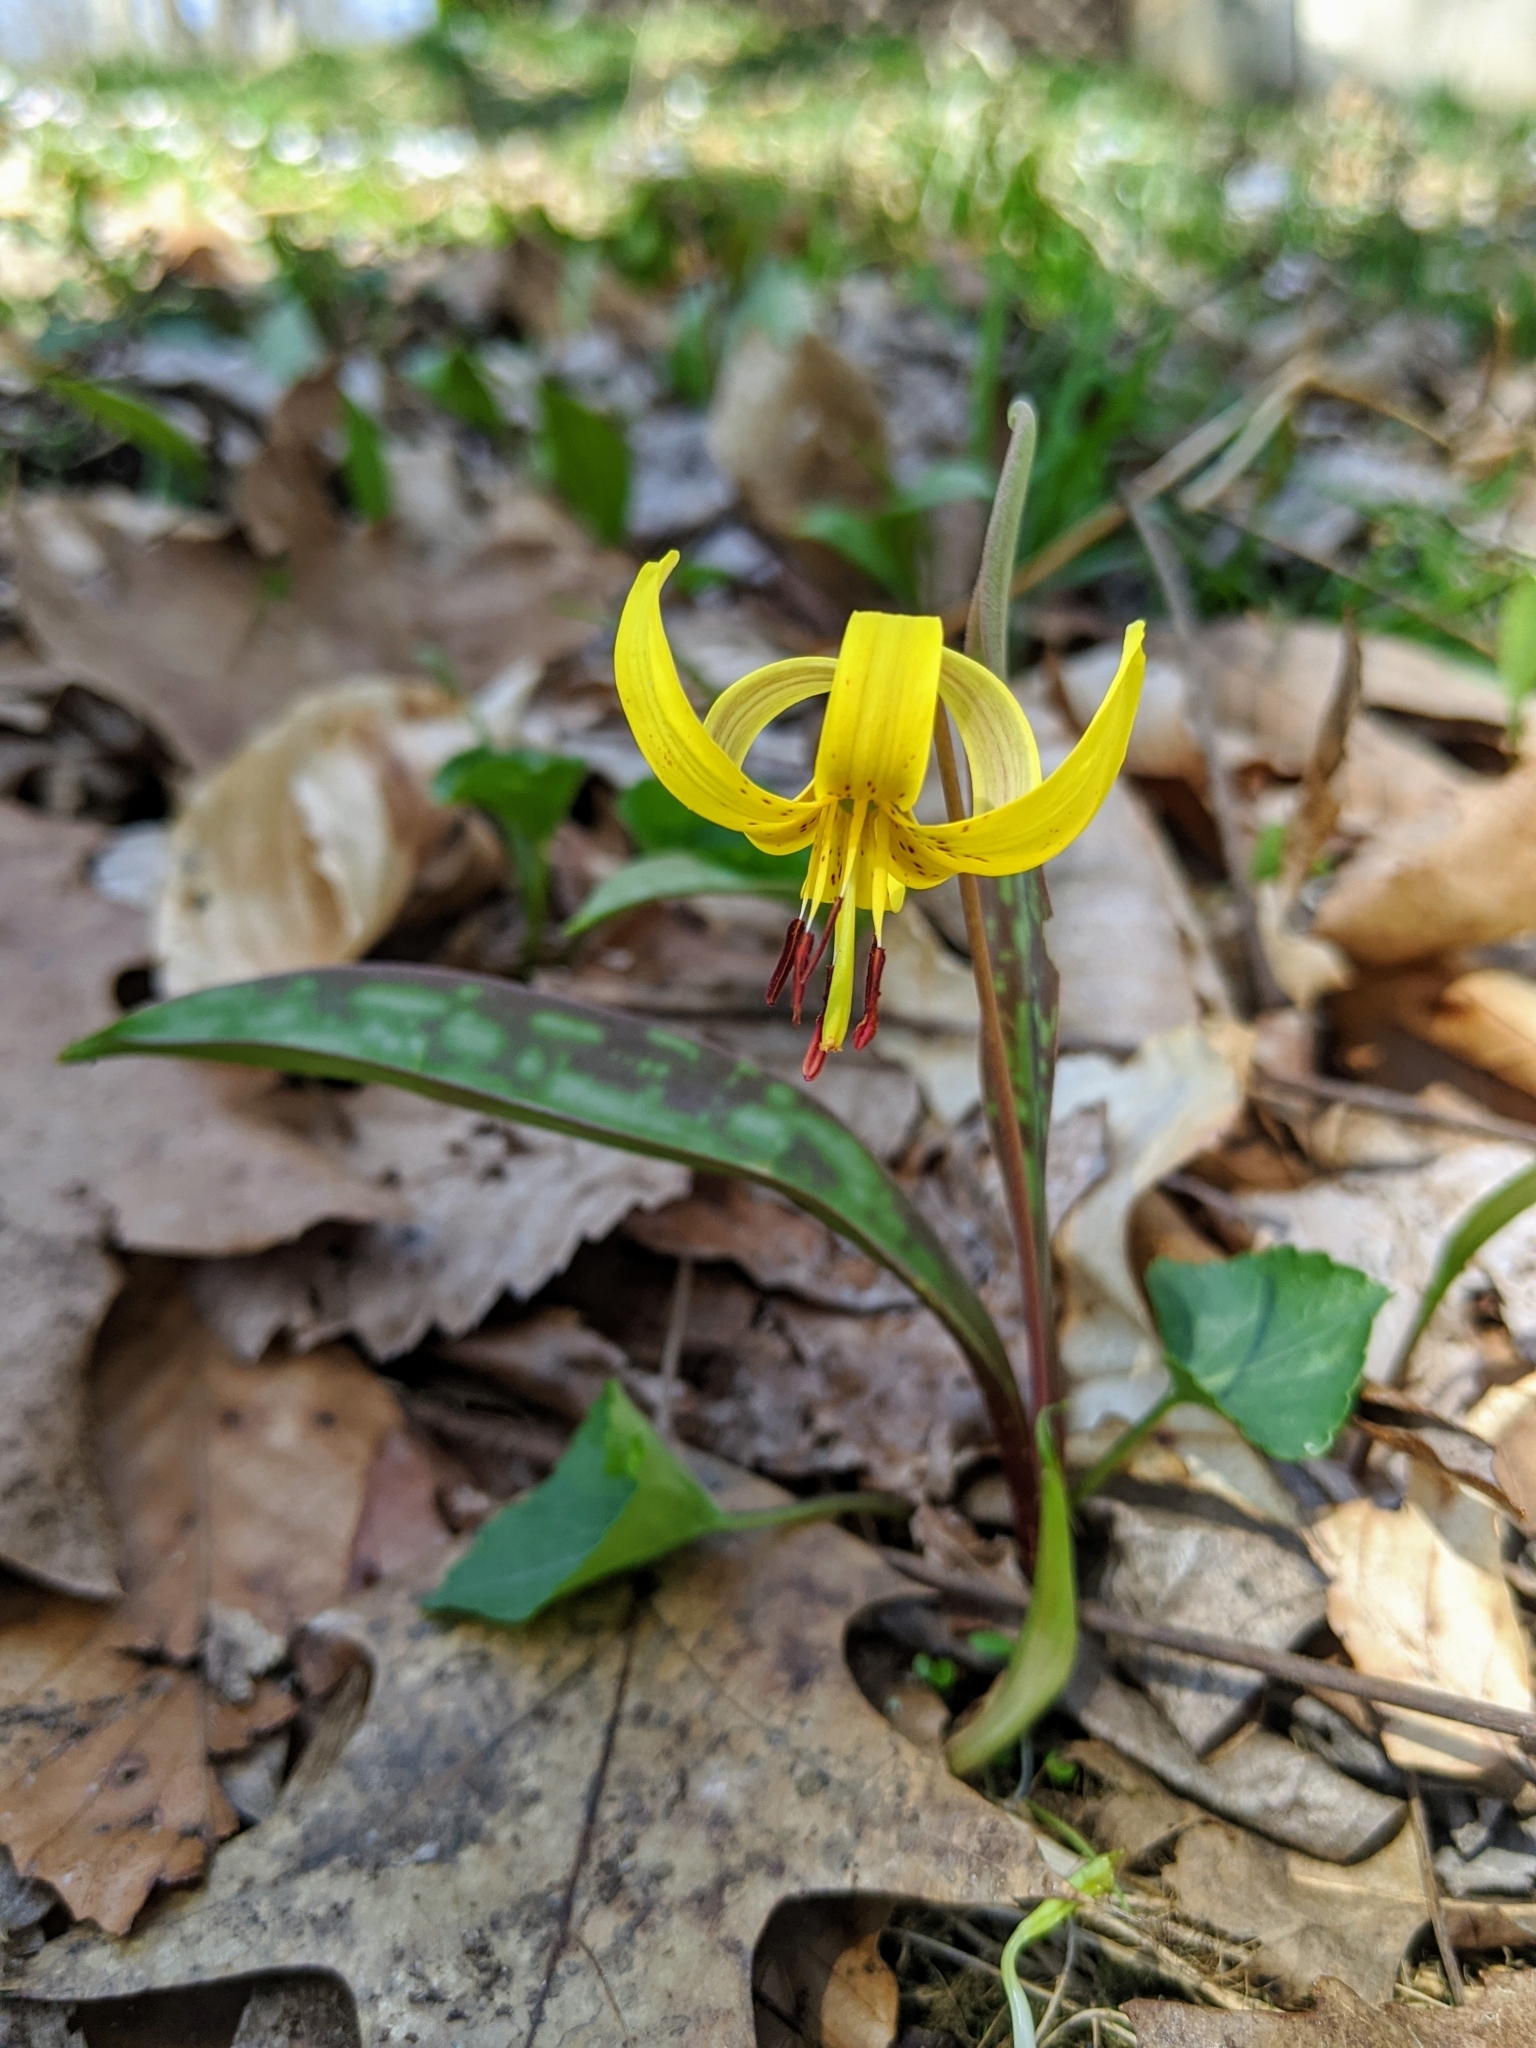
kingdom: Plantae
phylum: Tracheophyta
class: Liliopsida
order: Liliales
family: Liliaceae
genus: Erythronium
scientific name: Erythronium americanum
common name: Yellow adder's-tongue
